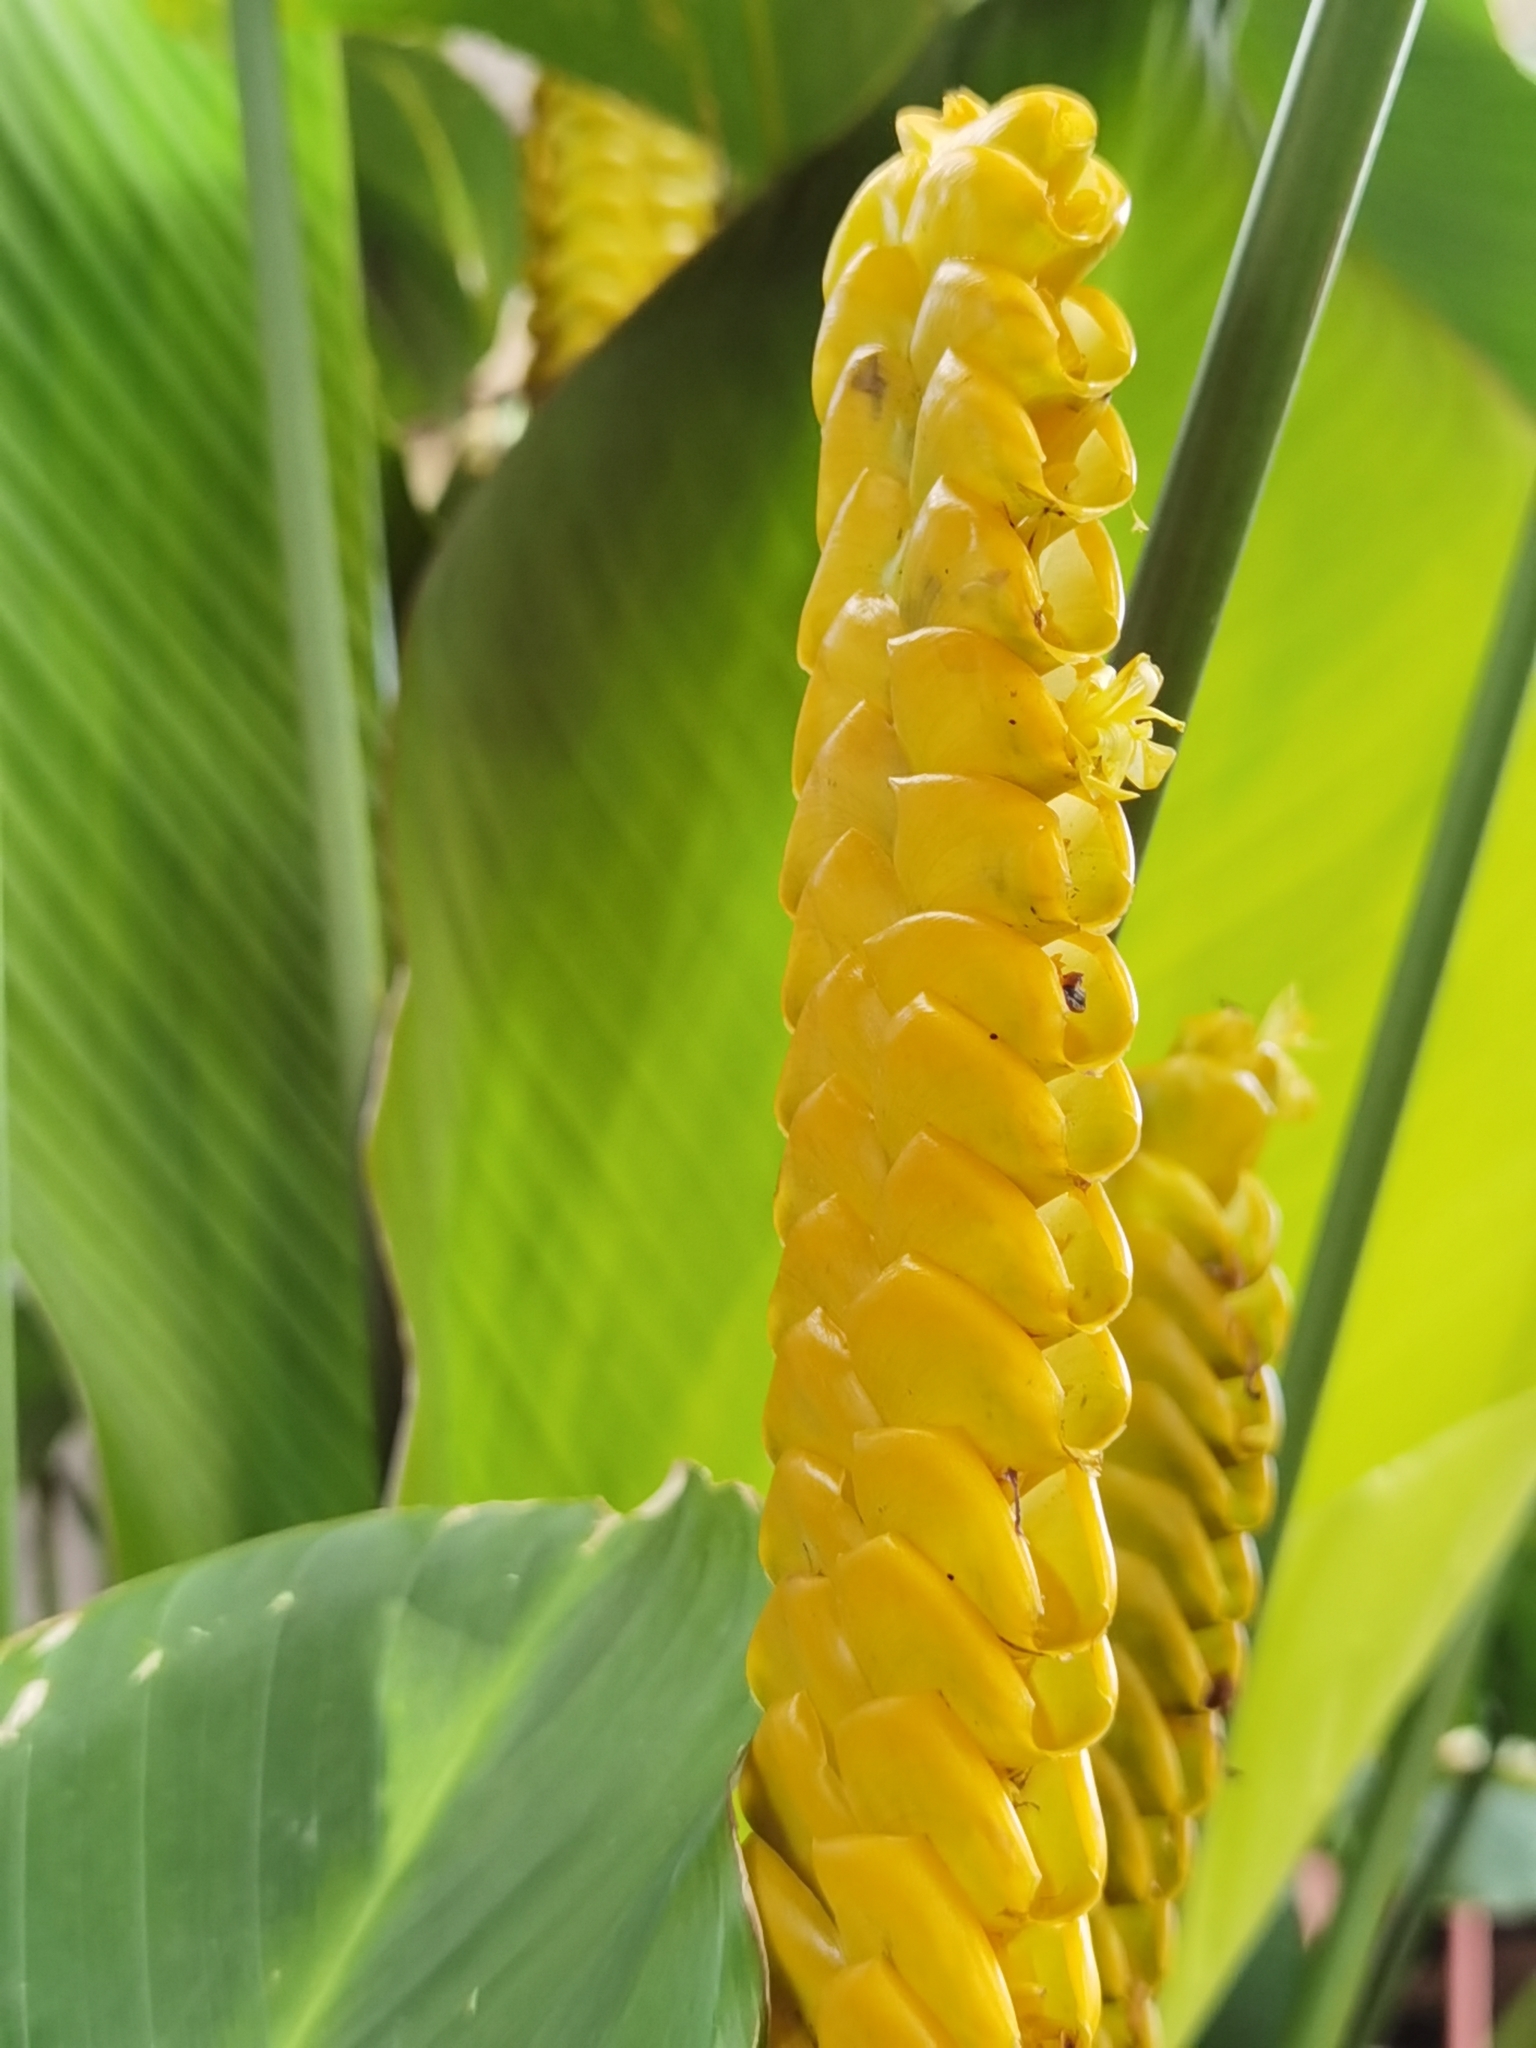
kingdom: Plantae
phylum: Tracheophyta
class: Liliopsida
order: Zingiberales
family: Marantaceae
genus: Calathea
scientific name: Calathea crotalifera
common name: Rattlesnake plant
